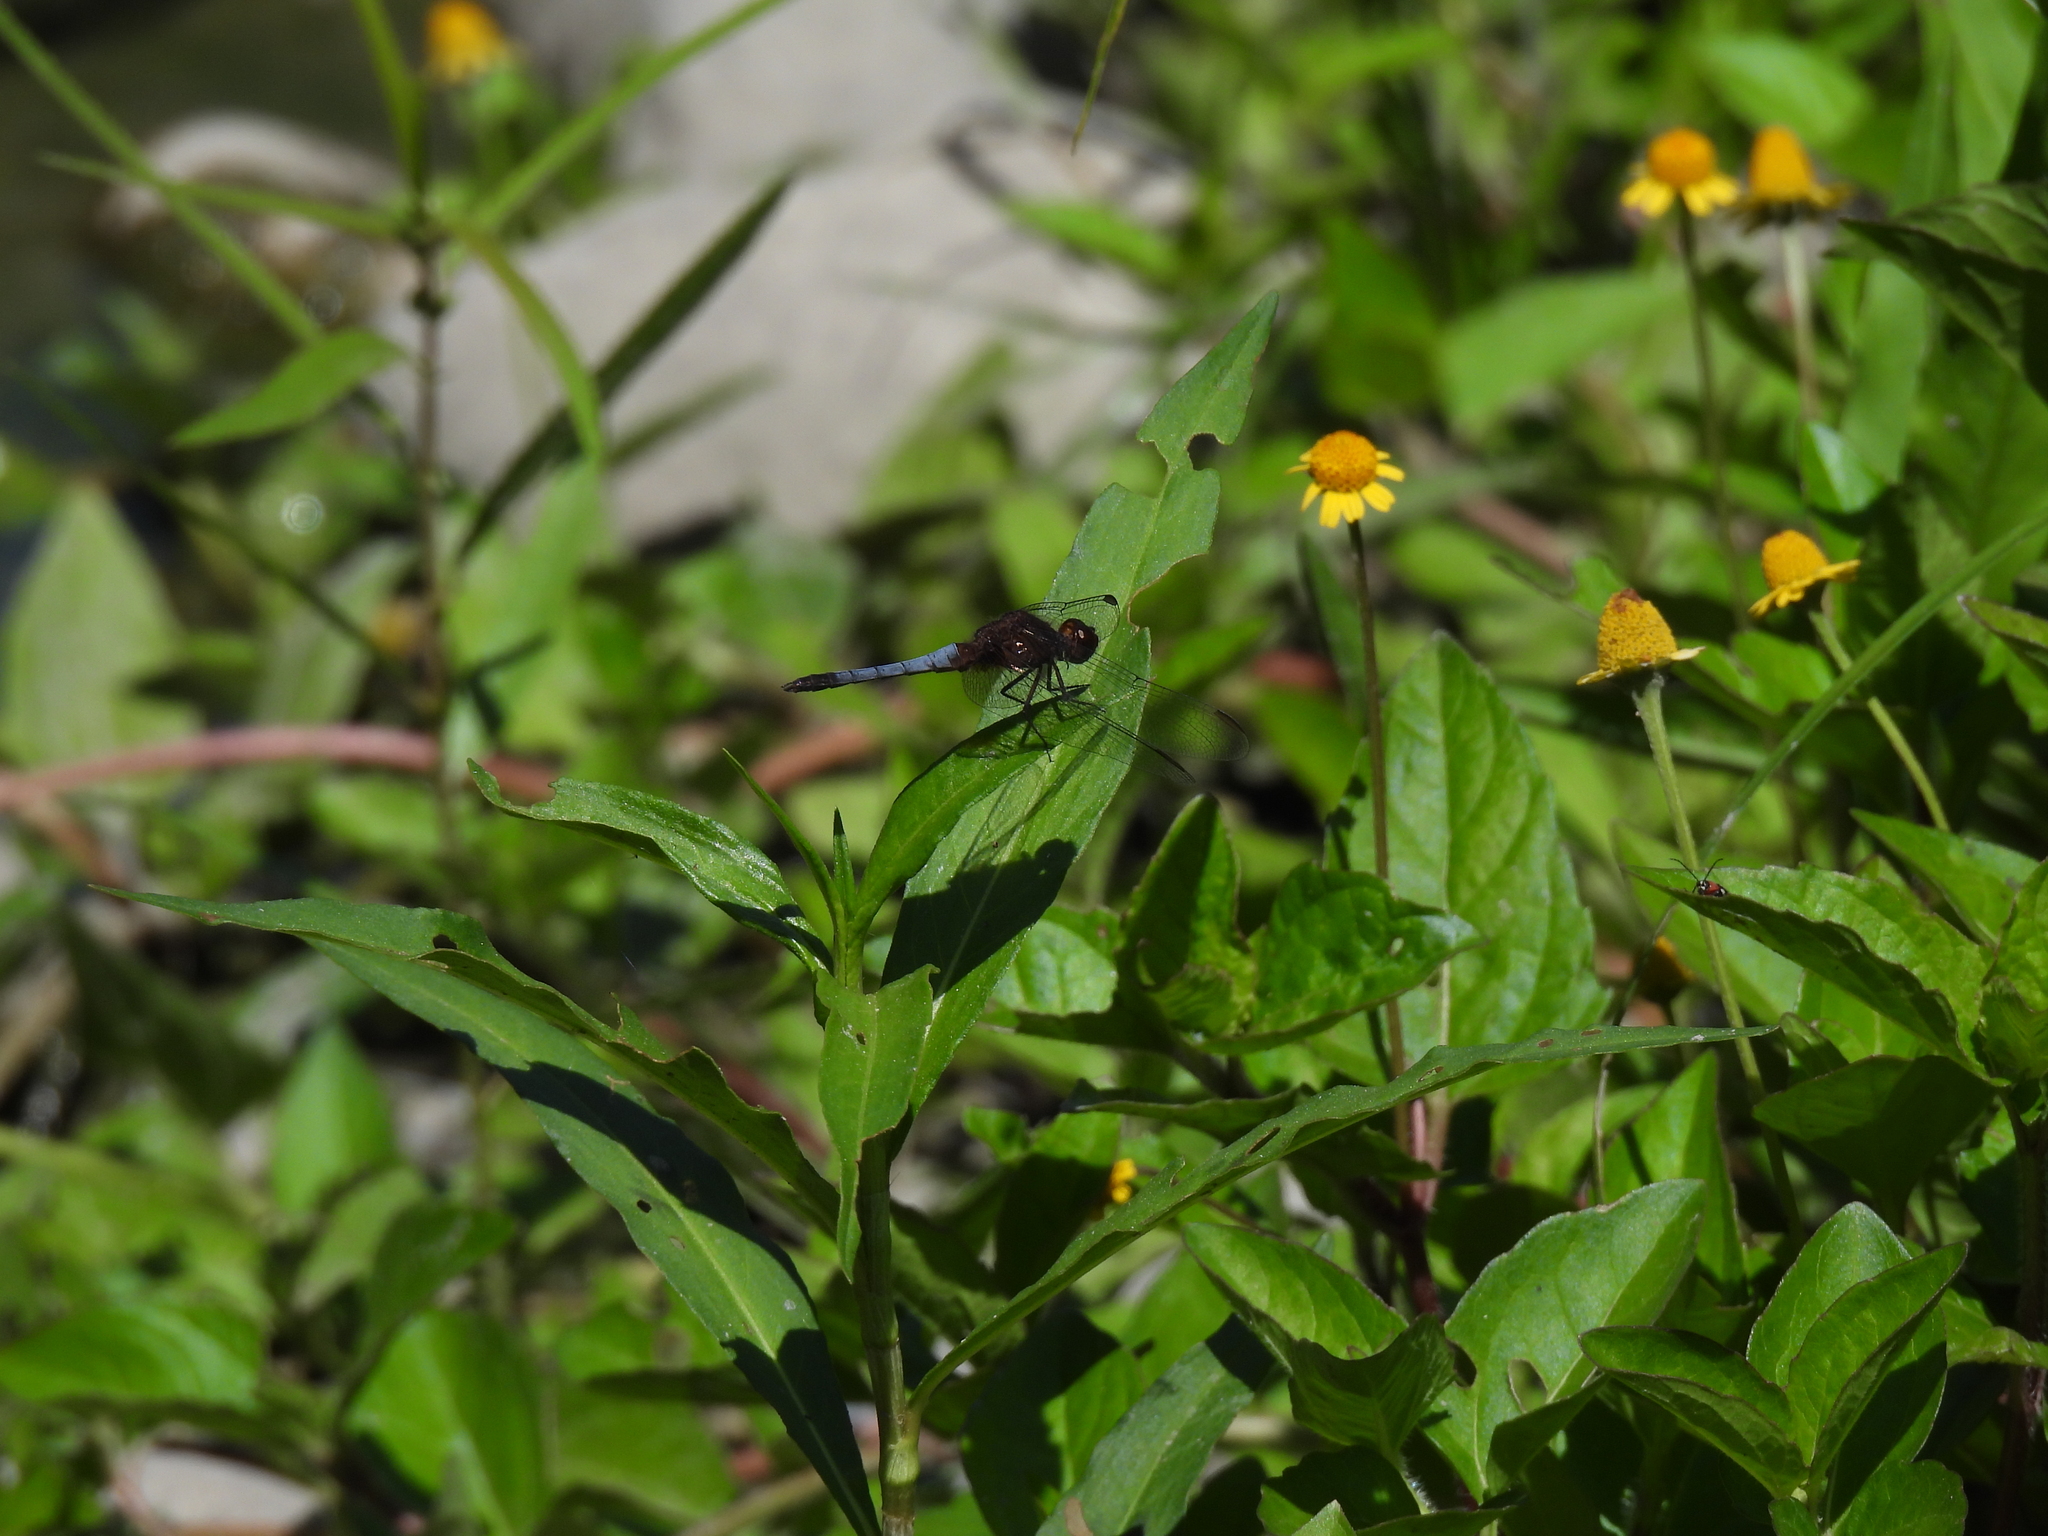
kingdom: Animalia
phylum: Arthropoda
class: Insecta
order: Odonata
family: Libellulidae
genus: Erythrodiplax
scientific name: Erythrodiplax basifusca
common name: Plateau dragonlet
